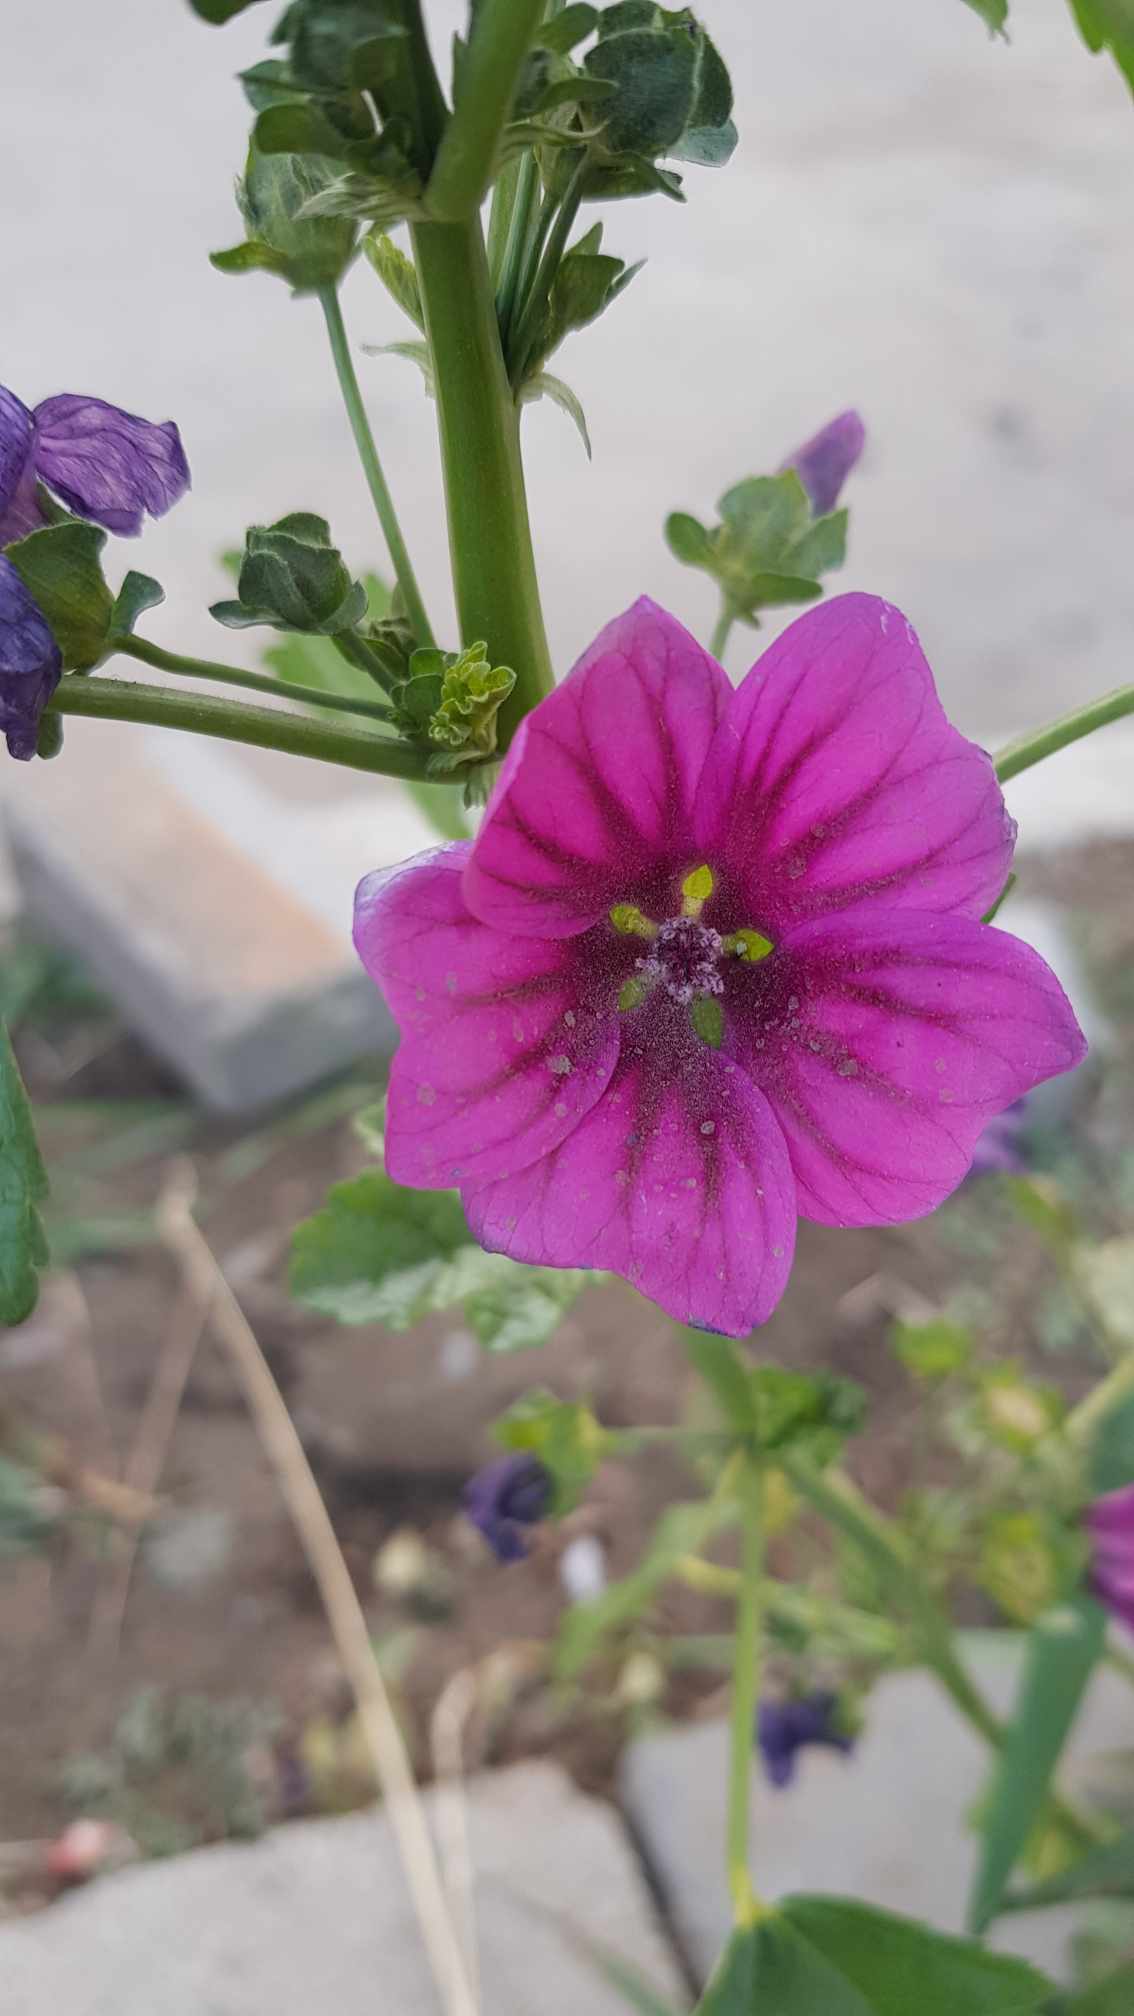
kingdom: Plantae
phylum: Tracheophyta
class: Magnoliopsida
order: Malvales
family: Malvaceae
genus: Malva
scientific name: Malva sylvestris
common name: Common mallow
